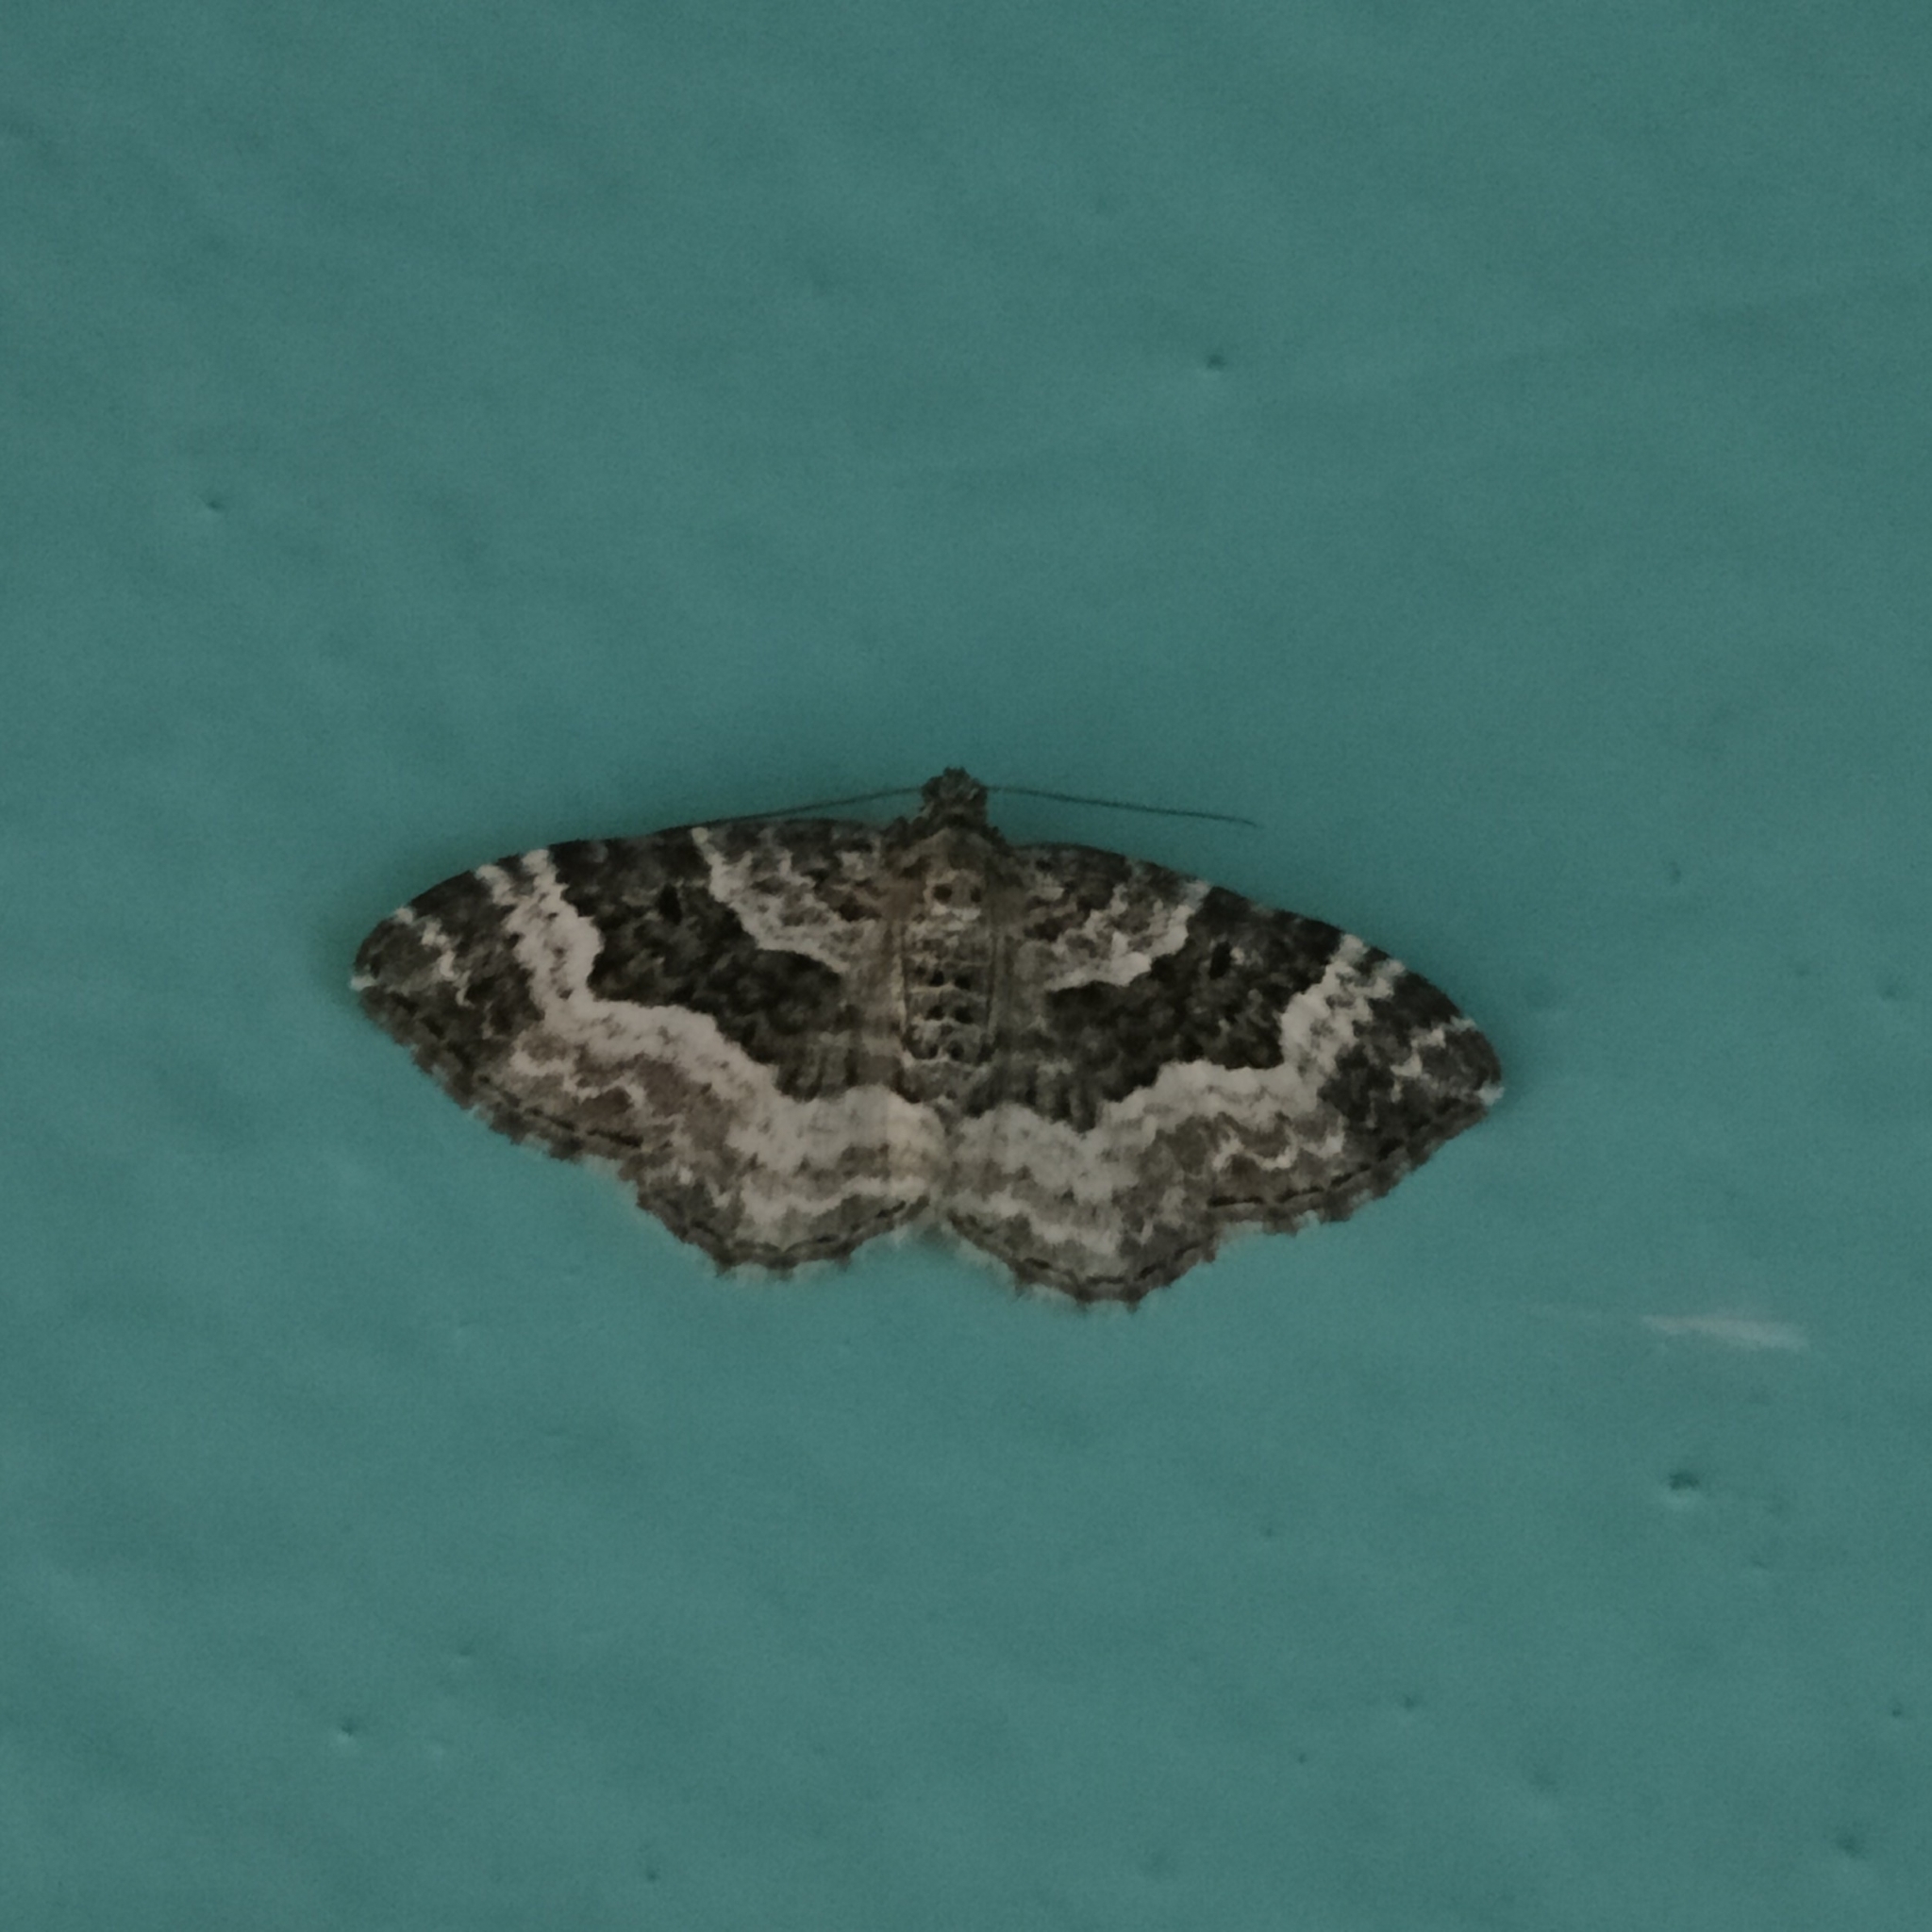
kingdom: Animalia
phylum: Arthropoda
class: Insecta
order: Lepidoptera
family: Geometridae
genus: Epirrhoe
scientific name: Epirrhoe alternata
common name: Common carpet
